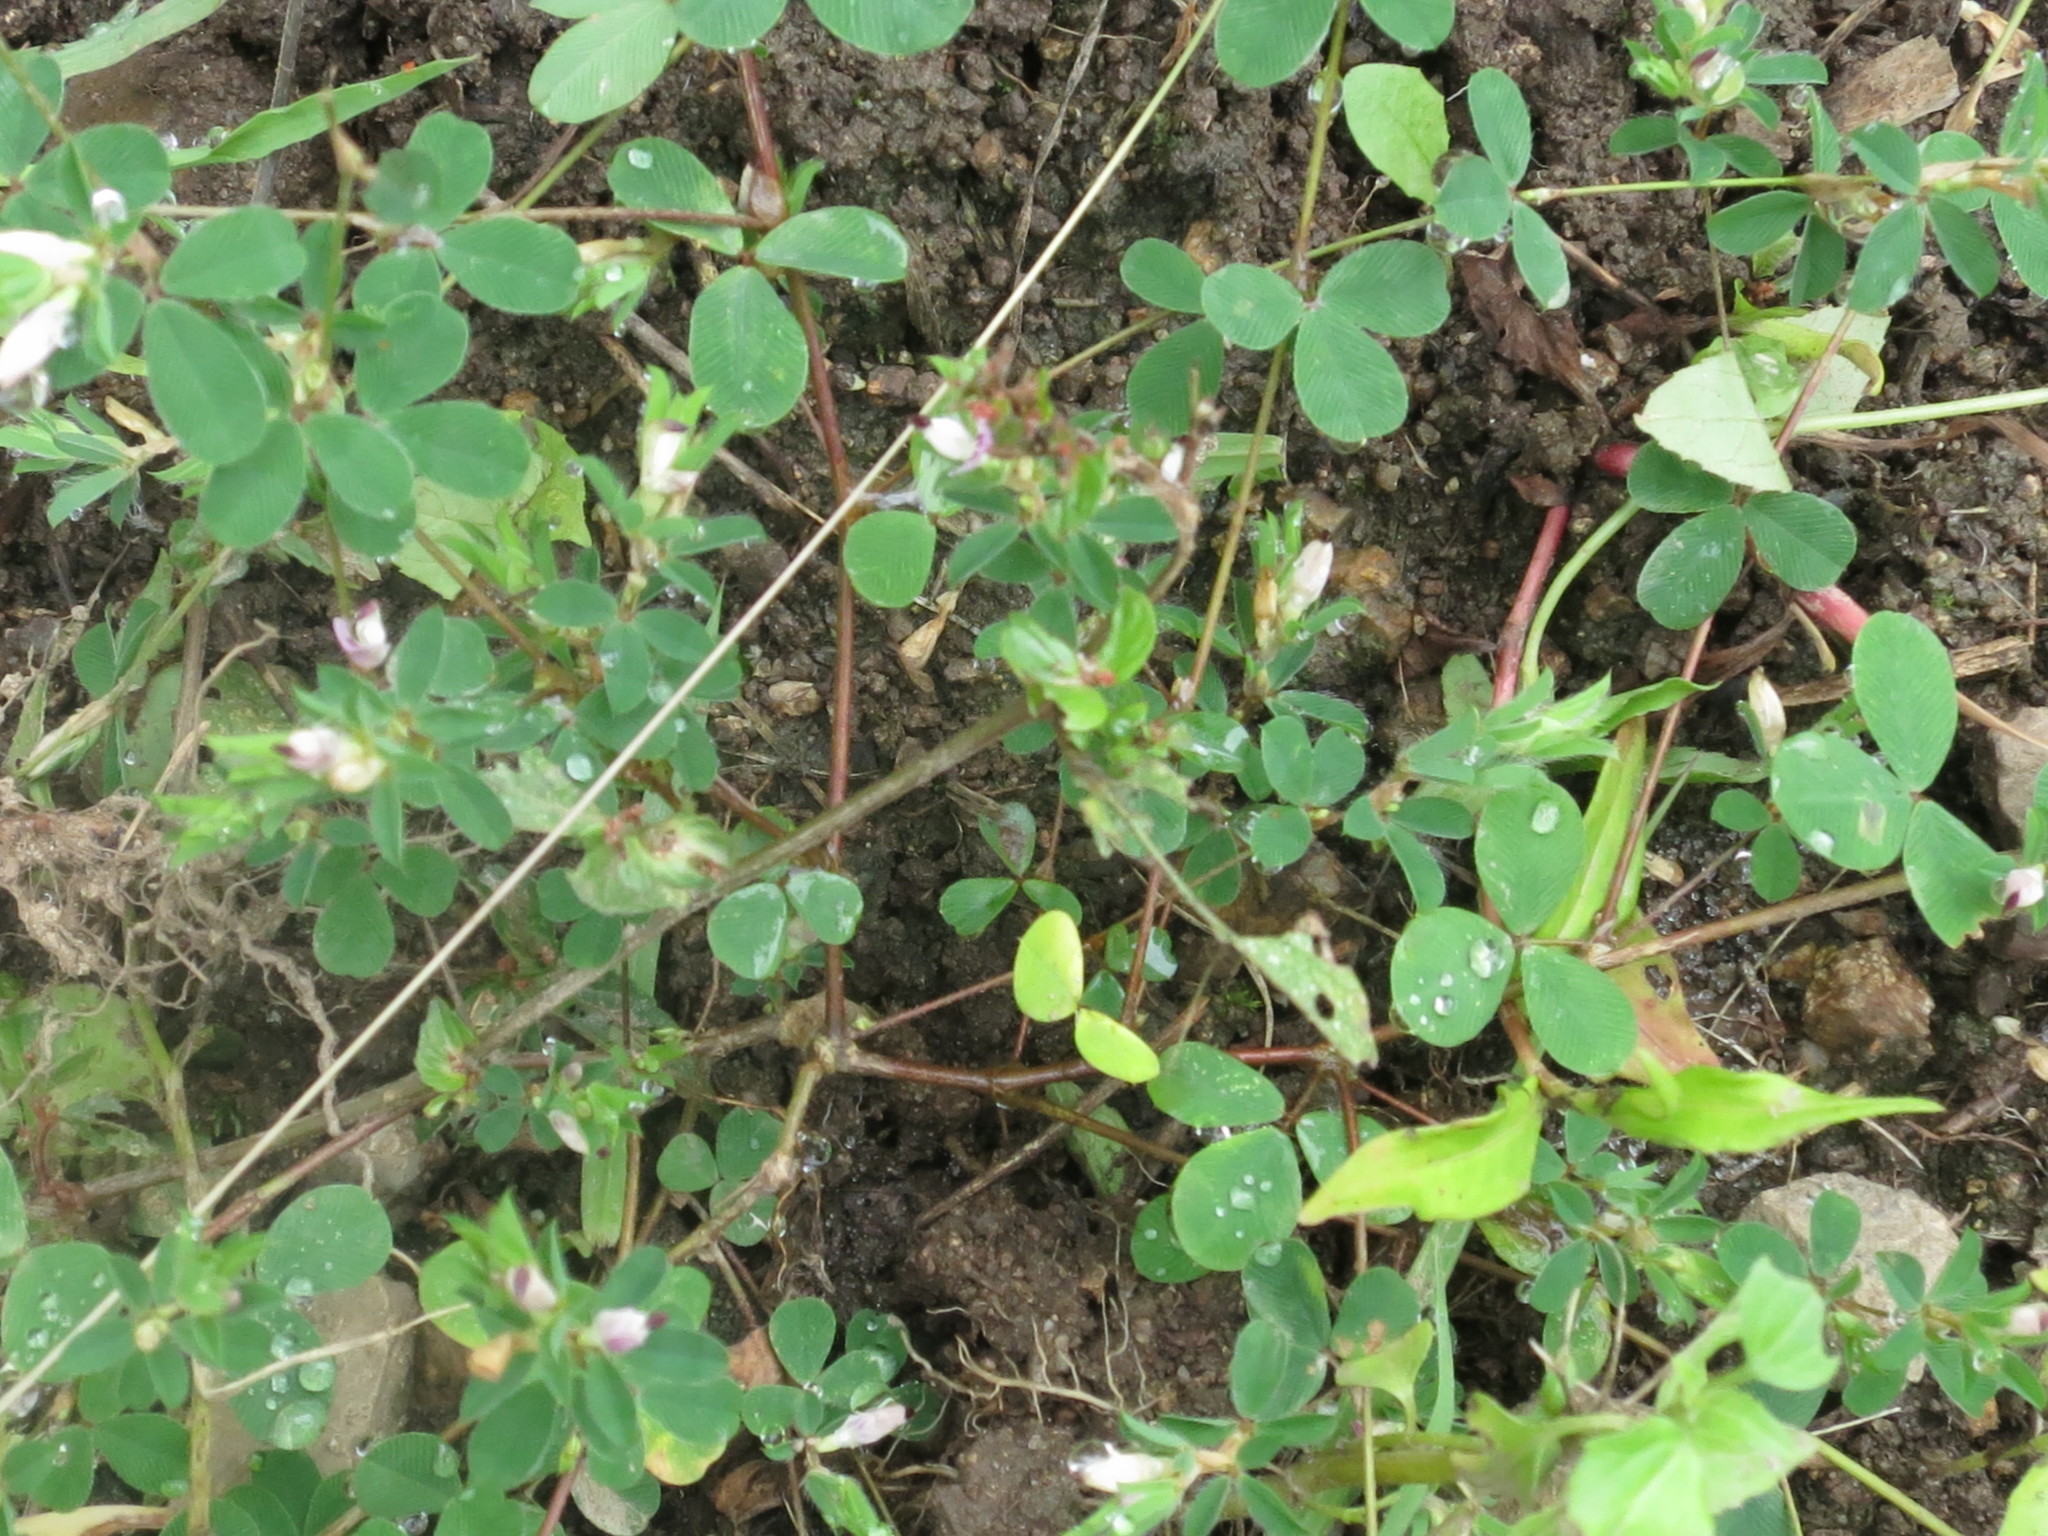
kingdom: Plantae
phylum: Tracheophyta
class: Magnoliopsida
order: Fabales
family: Fabaceae
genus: Kummerowia
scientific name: Kummerowia stipulacea
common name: Korean clover
